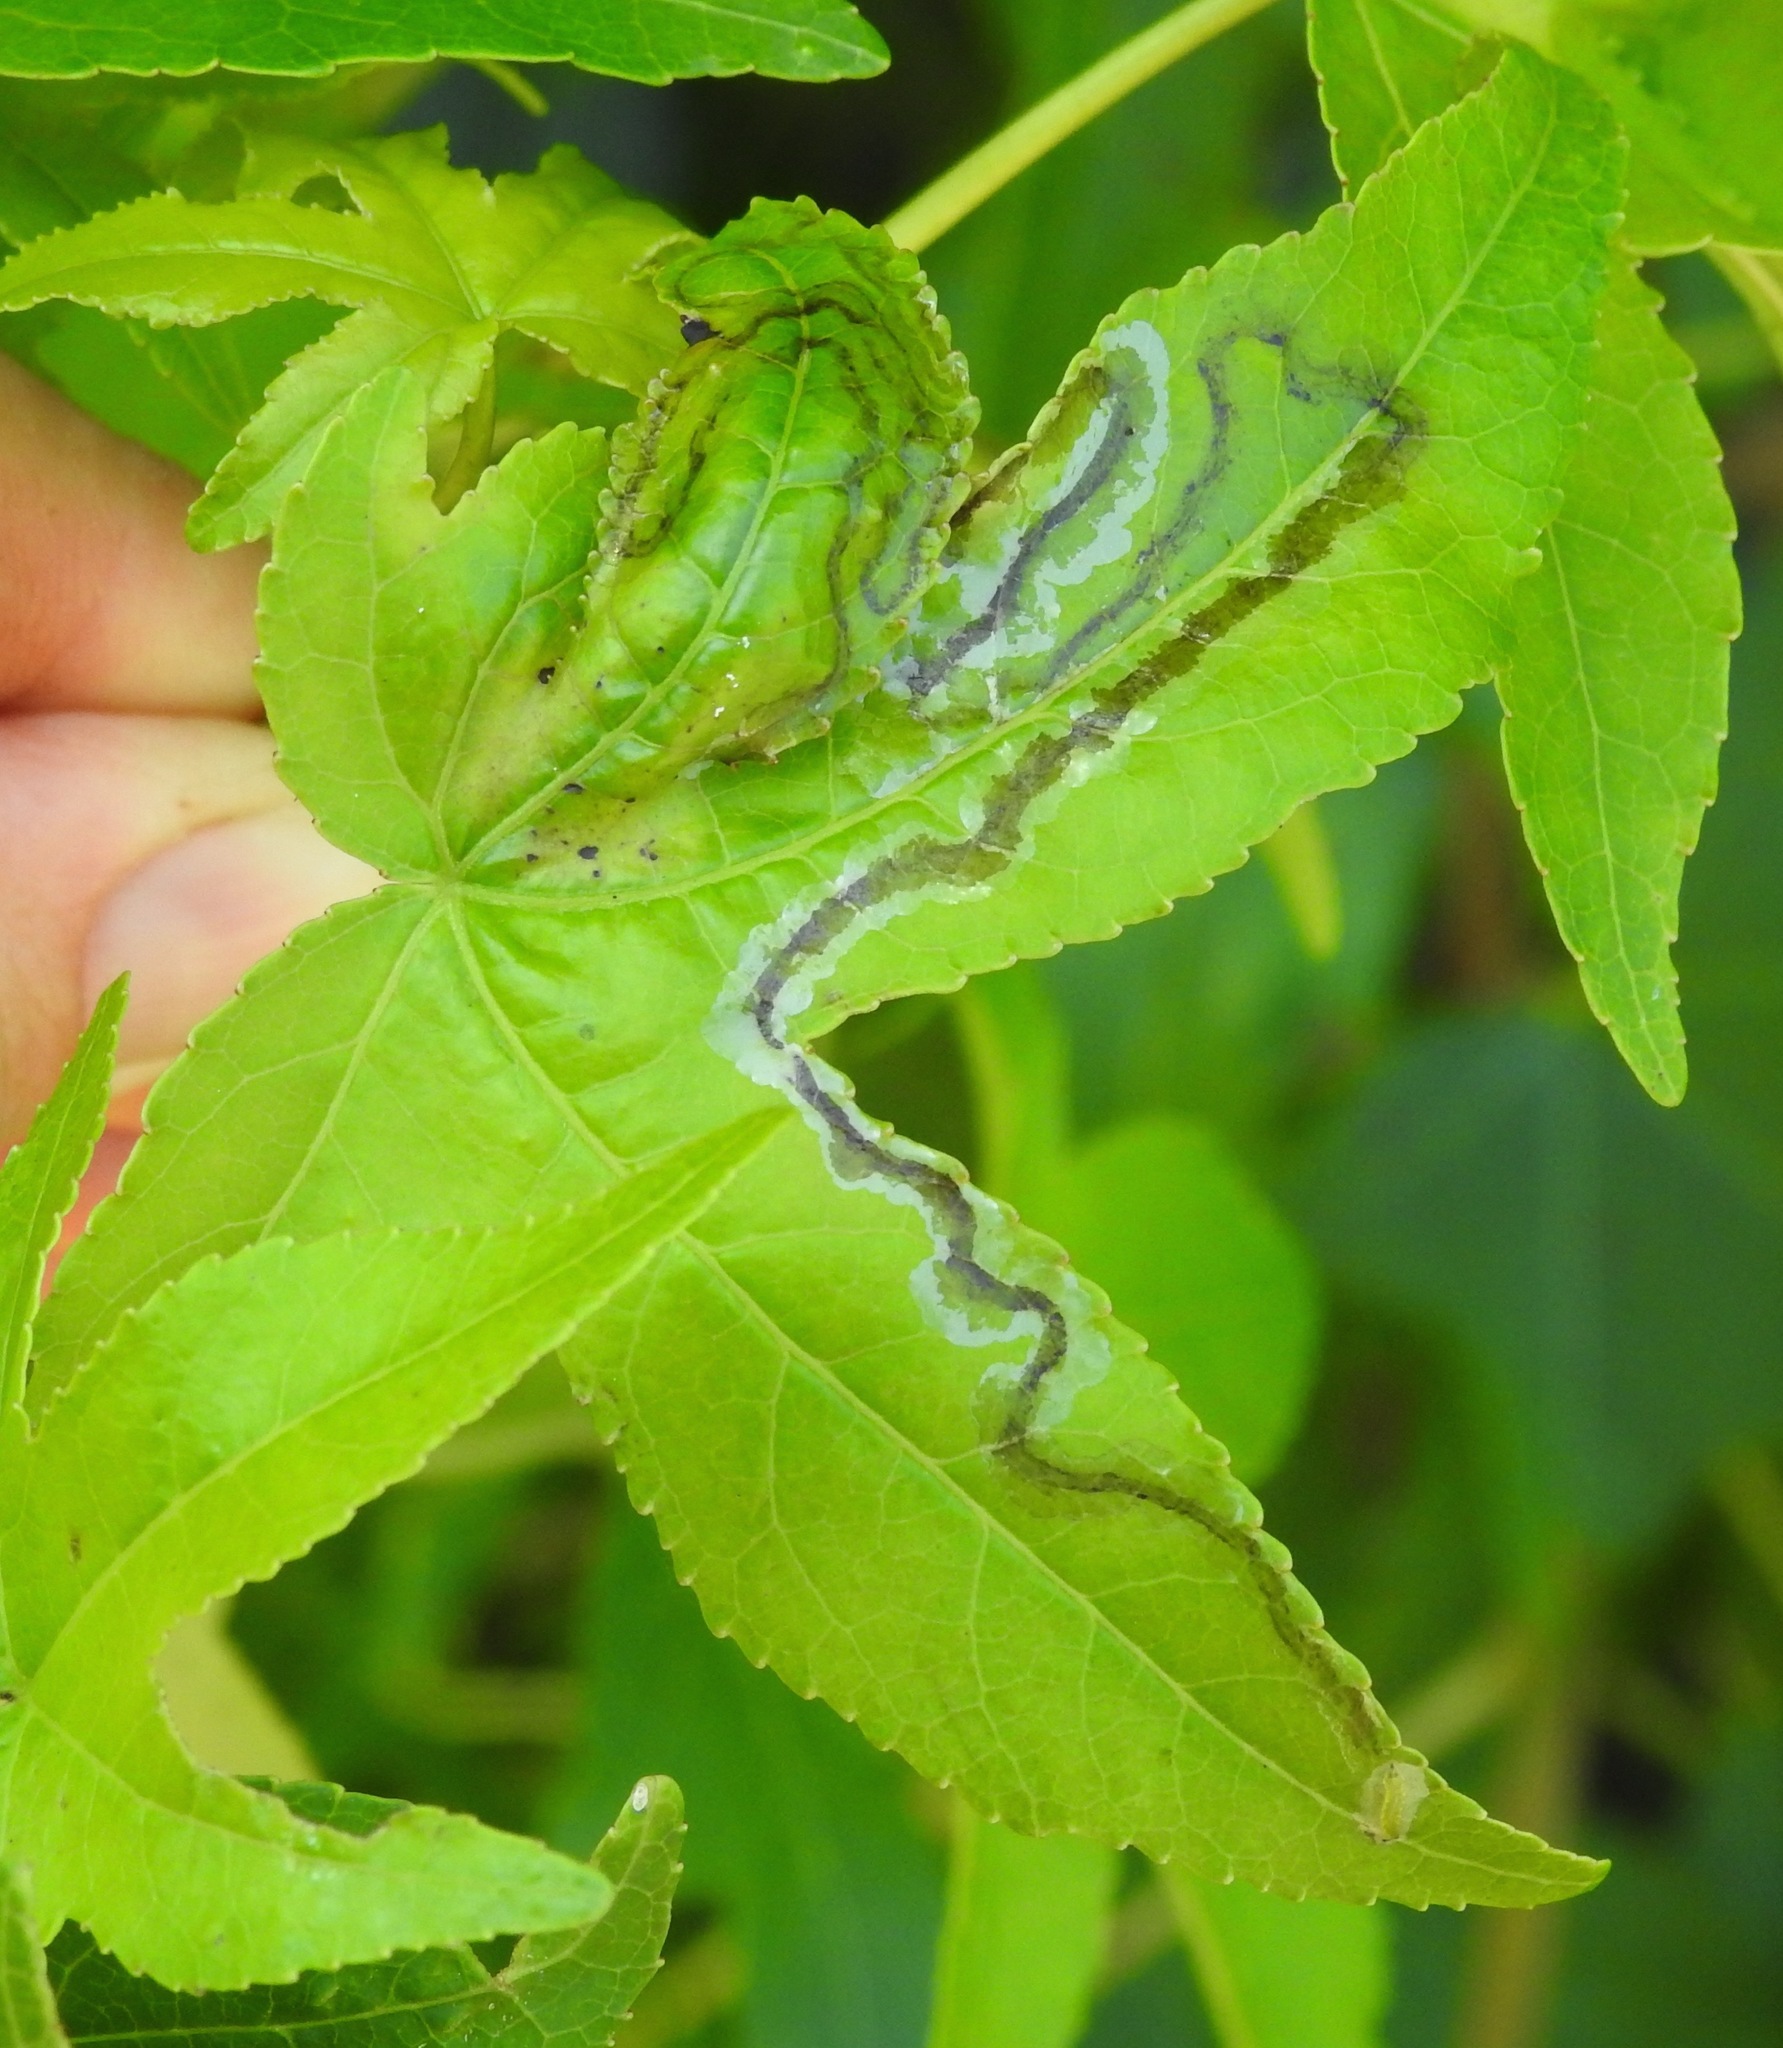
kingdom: Animalia
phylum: Arthropoda
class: Insecta
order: Lepidoptera
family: Gracillariidae
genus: Phyllocnistis
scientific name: Phyllocnistis liquidambarisella
